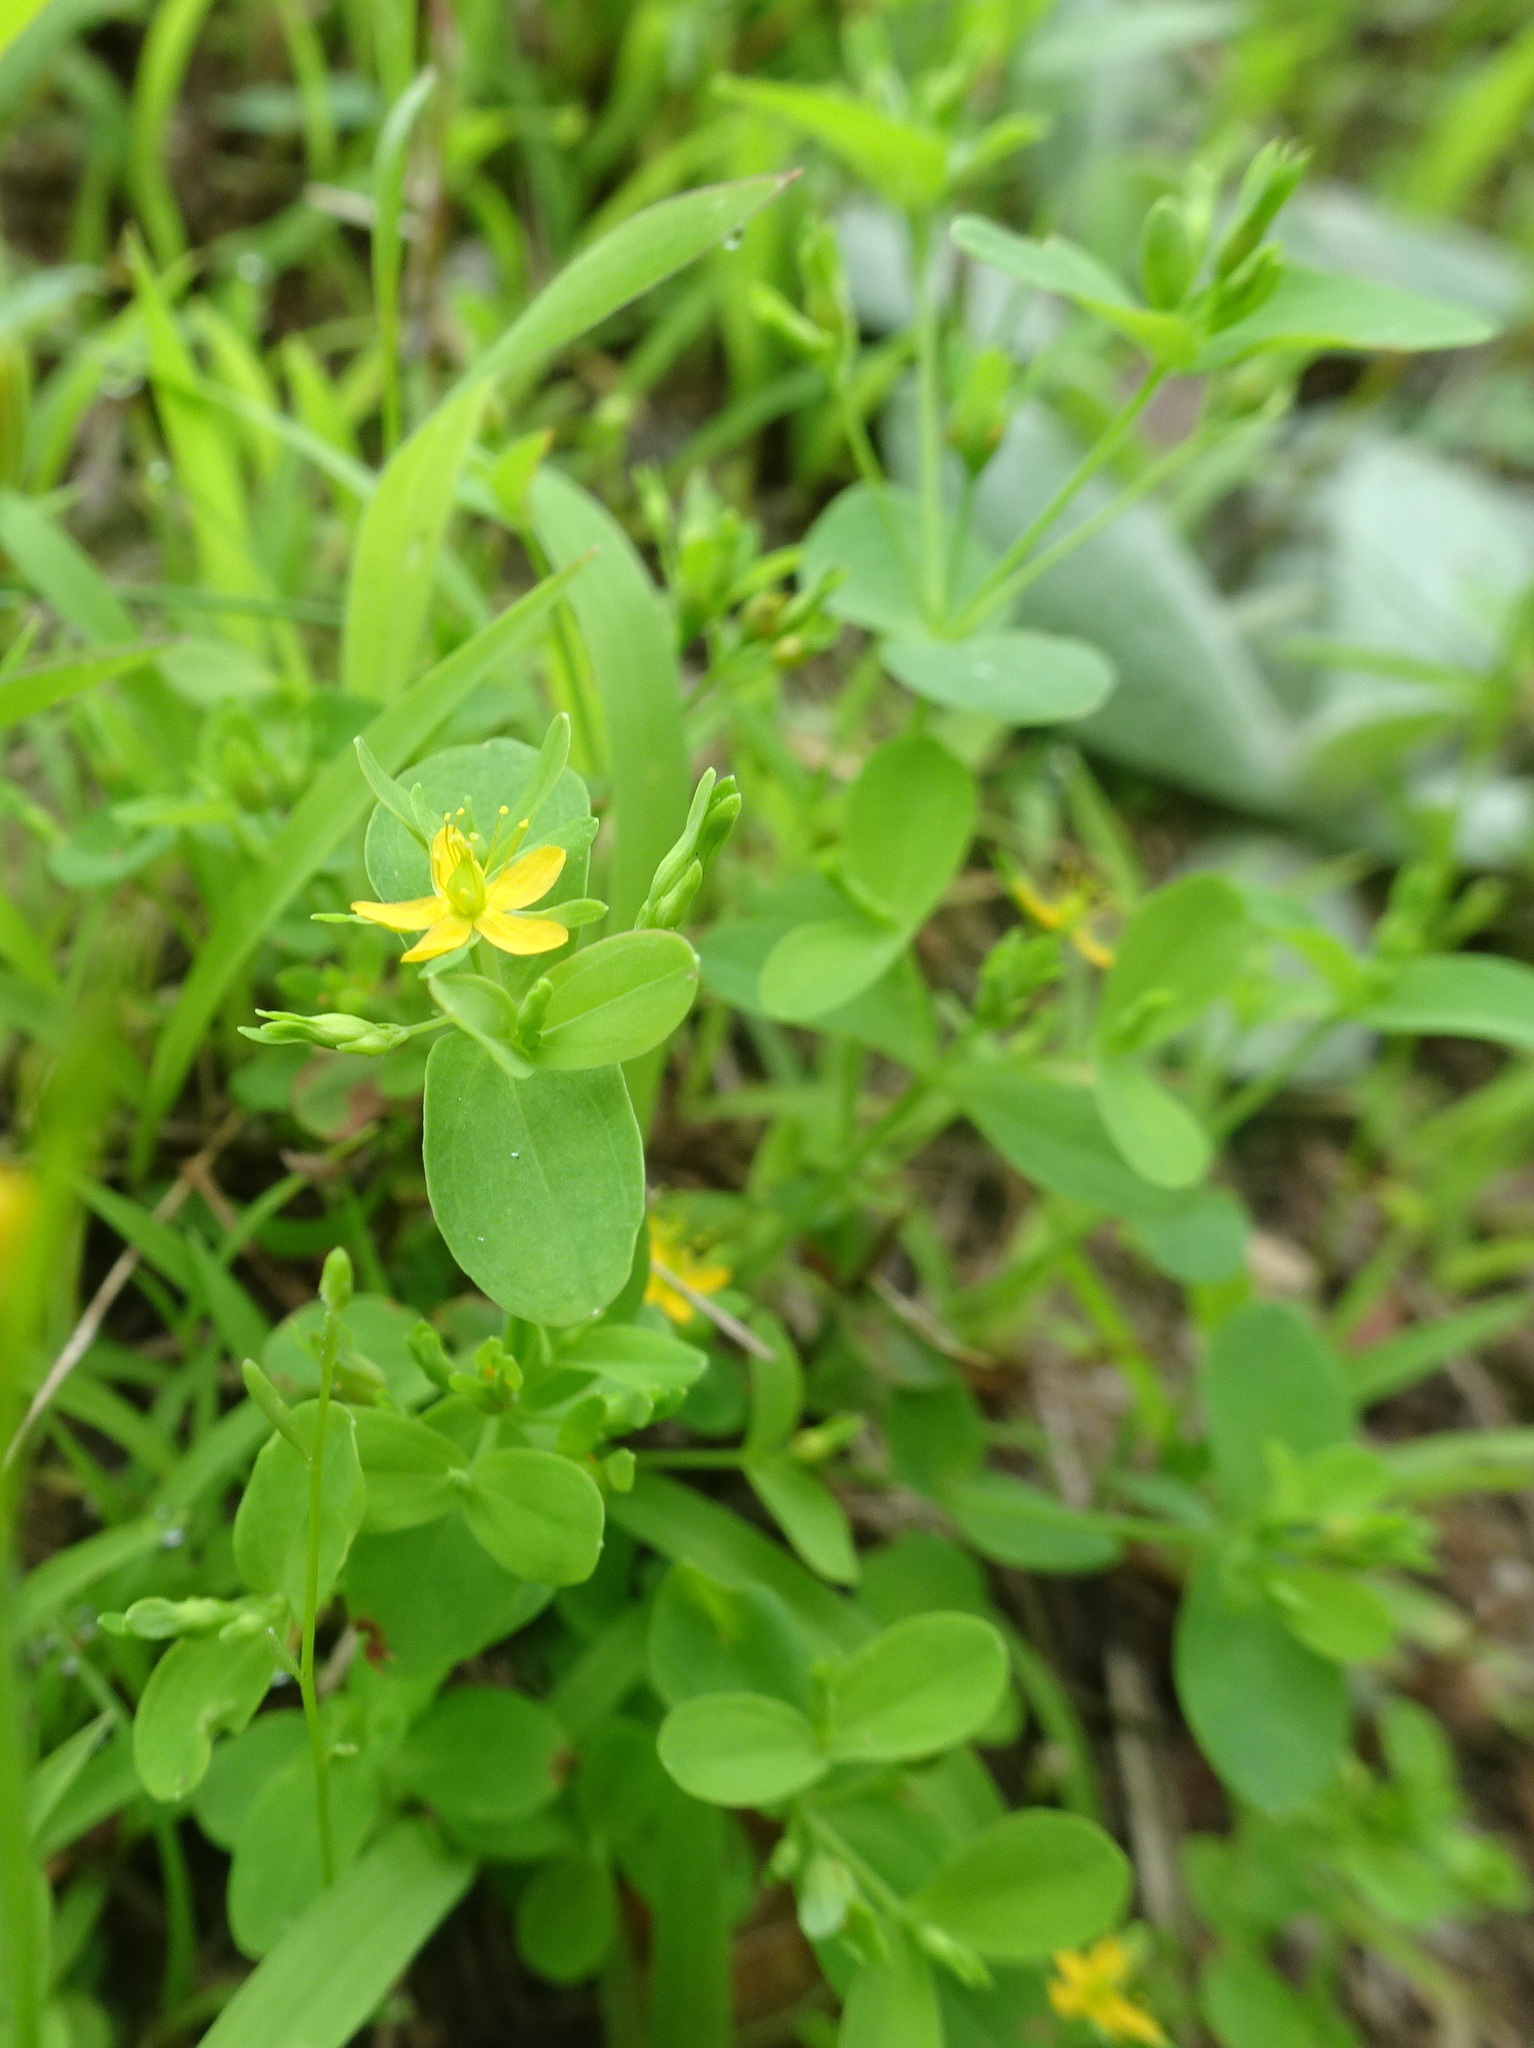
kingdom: Plantae
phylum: Tracheophyta
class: Magnoliopsida
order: Malpighiales
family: Hypericaceae
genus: Hypericum
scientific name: Hypericum mutilum
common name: Dwarf st. john's-wort
